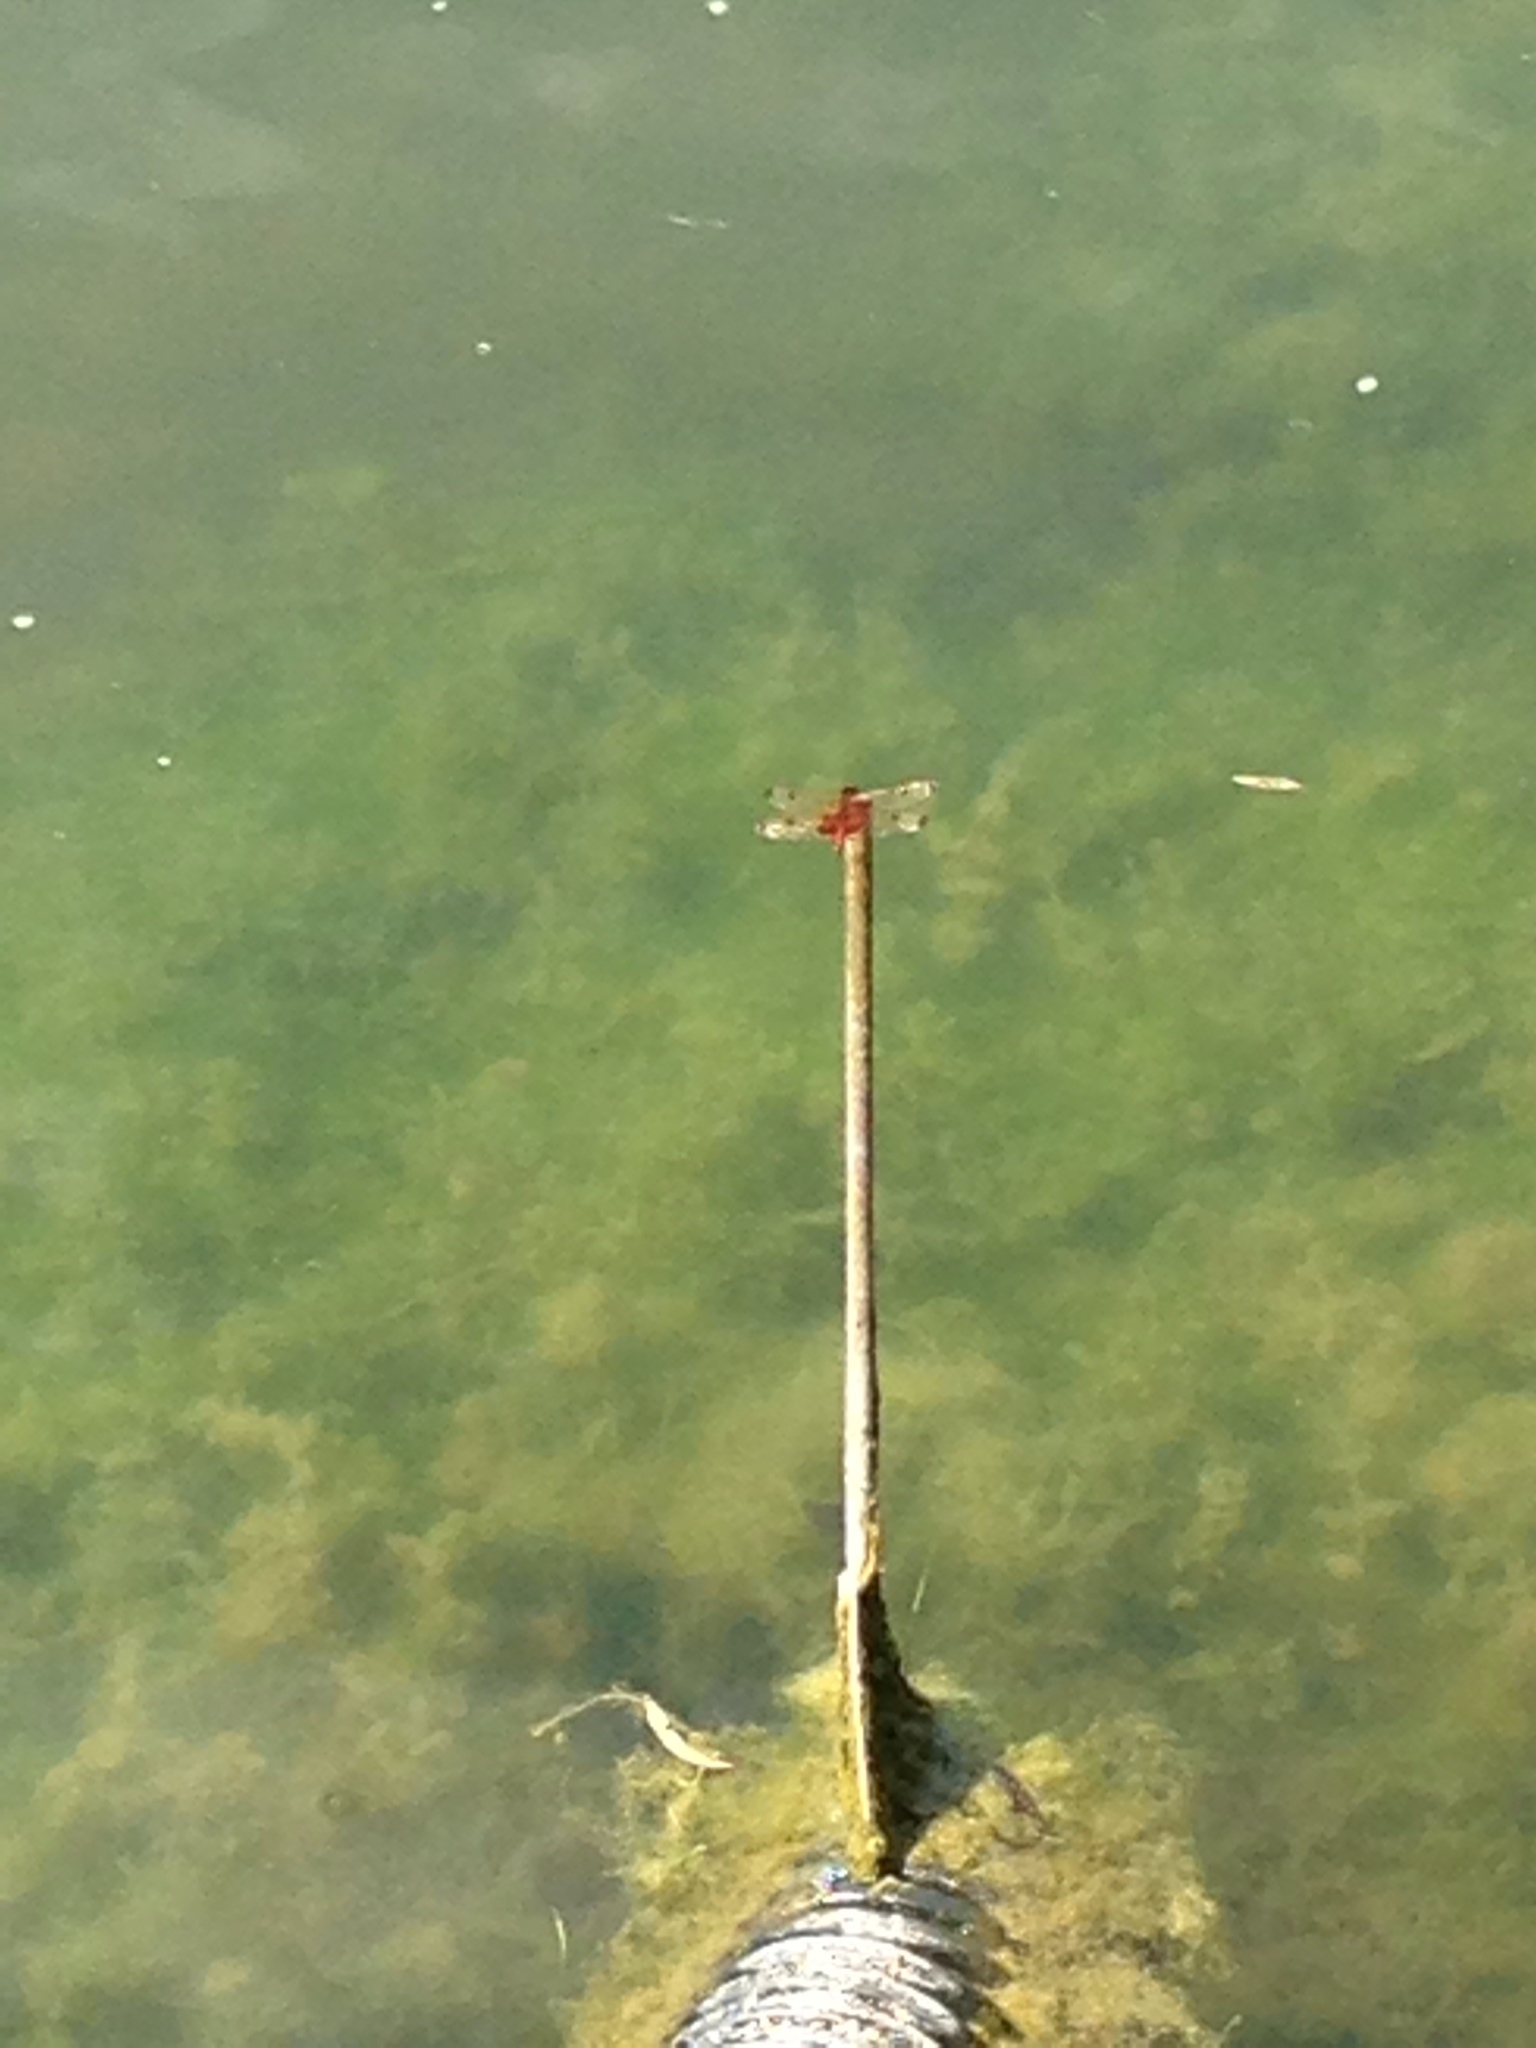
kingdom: Animalia
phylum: Arthropoda
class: Insecta
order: Odonata
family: Libellulidae
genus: Celithemis
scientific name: Celithemis elisa
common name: Calico pennant
